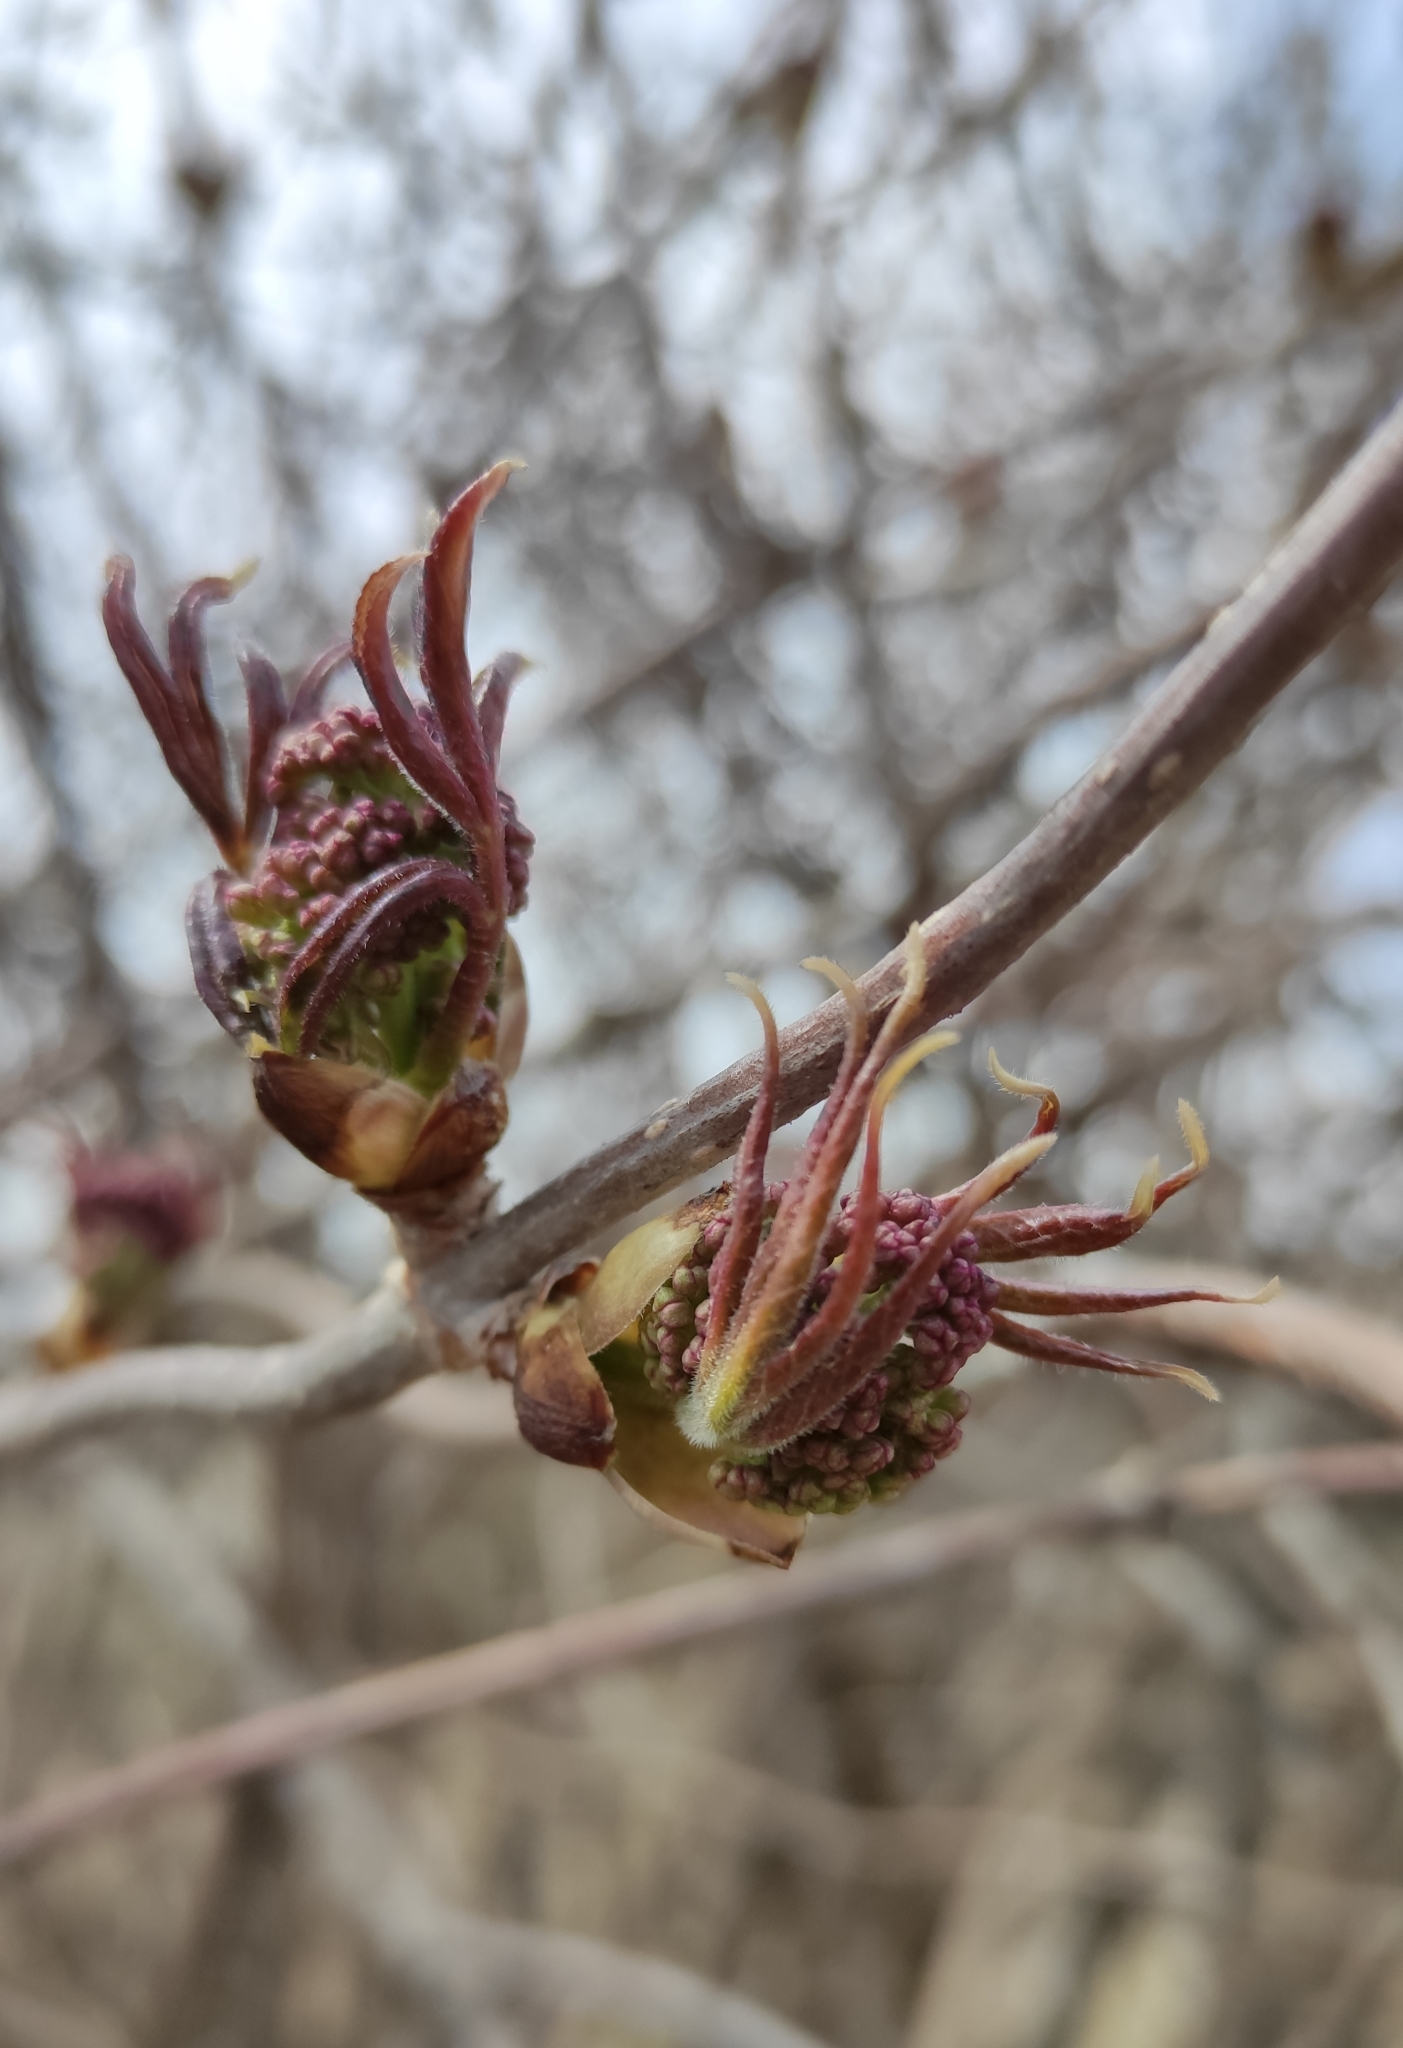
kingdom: Plantae
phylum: Tracheophyta
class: Magnoliopsida
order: Dipsacales
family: Viburnaceae
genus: Sambucus
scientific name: Sambucus sibirica
